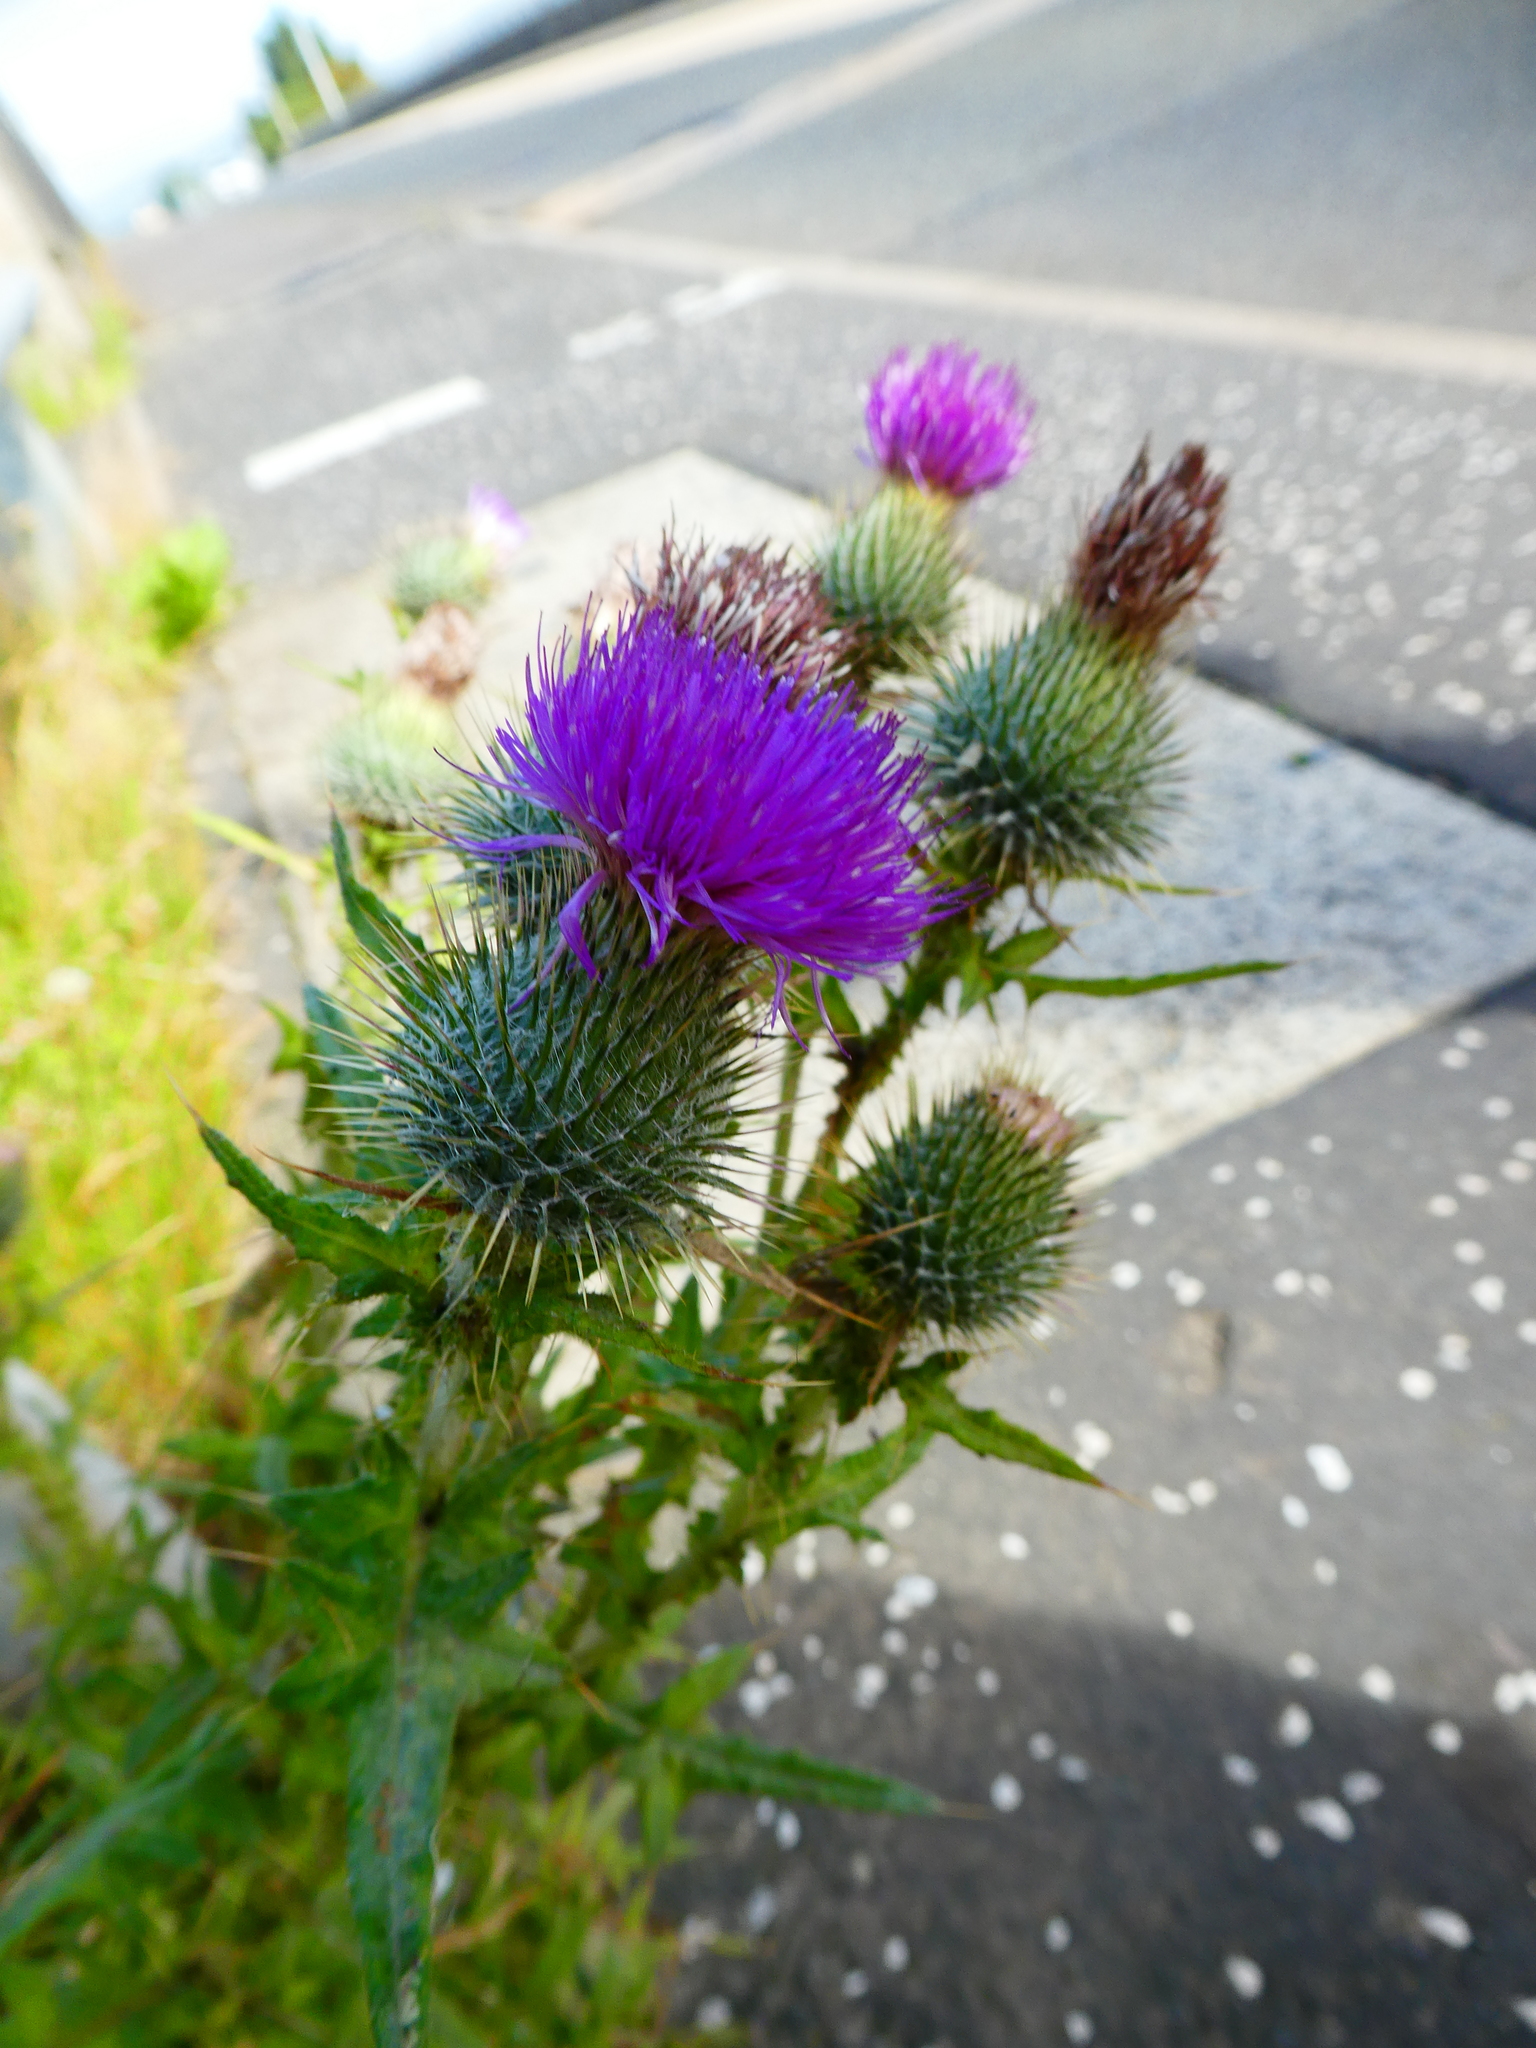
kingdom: Plantae
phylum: Tracheophyta
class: Magnoliopsida
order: Asterales
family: Asteraceae
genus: Cirsium
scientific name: Cirsium vulgare
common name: Bull thistle
